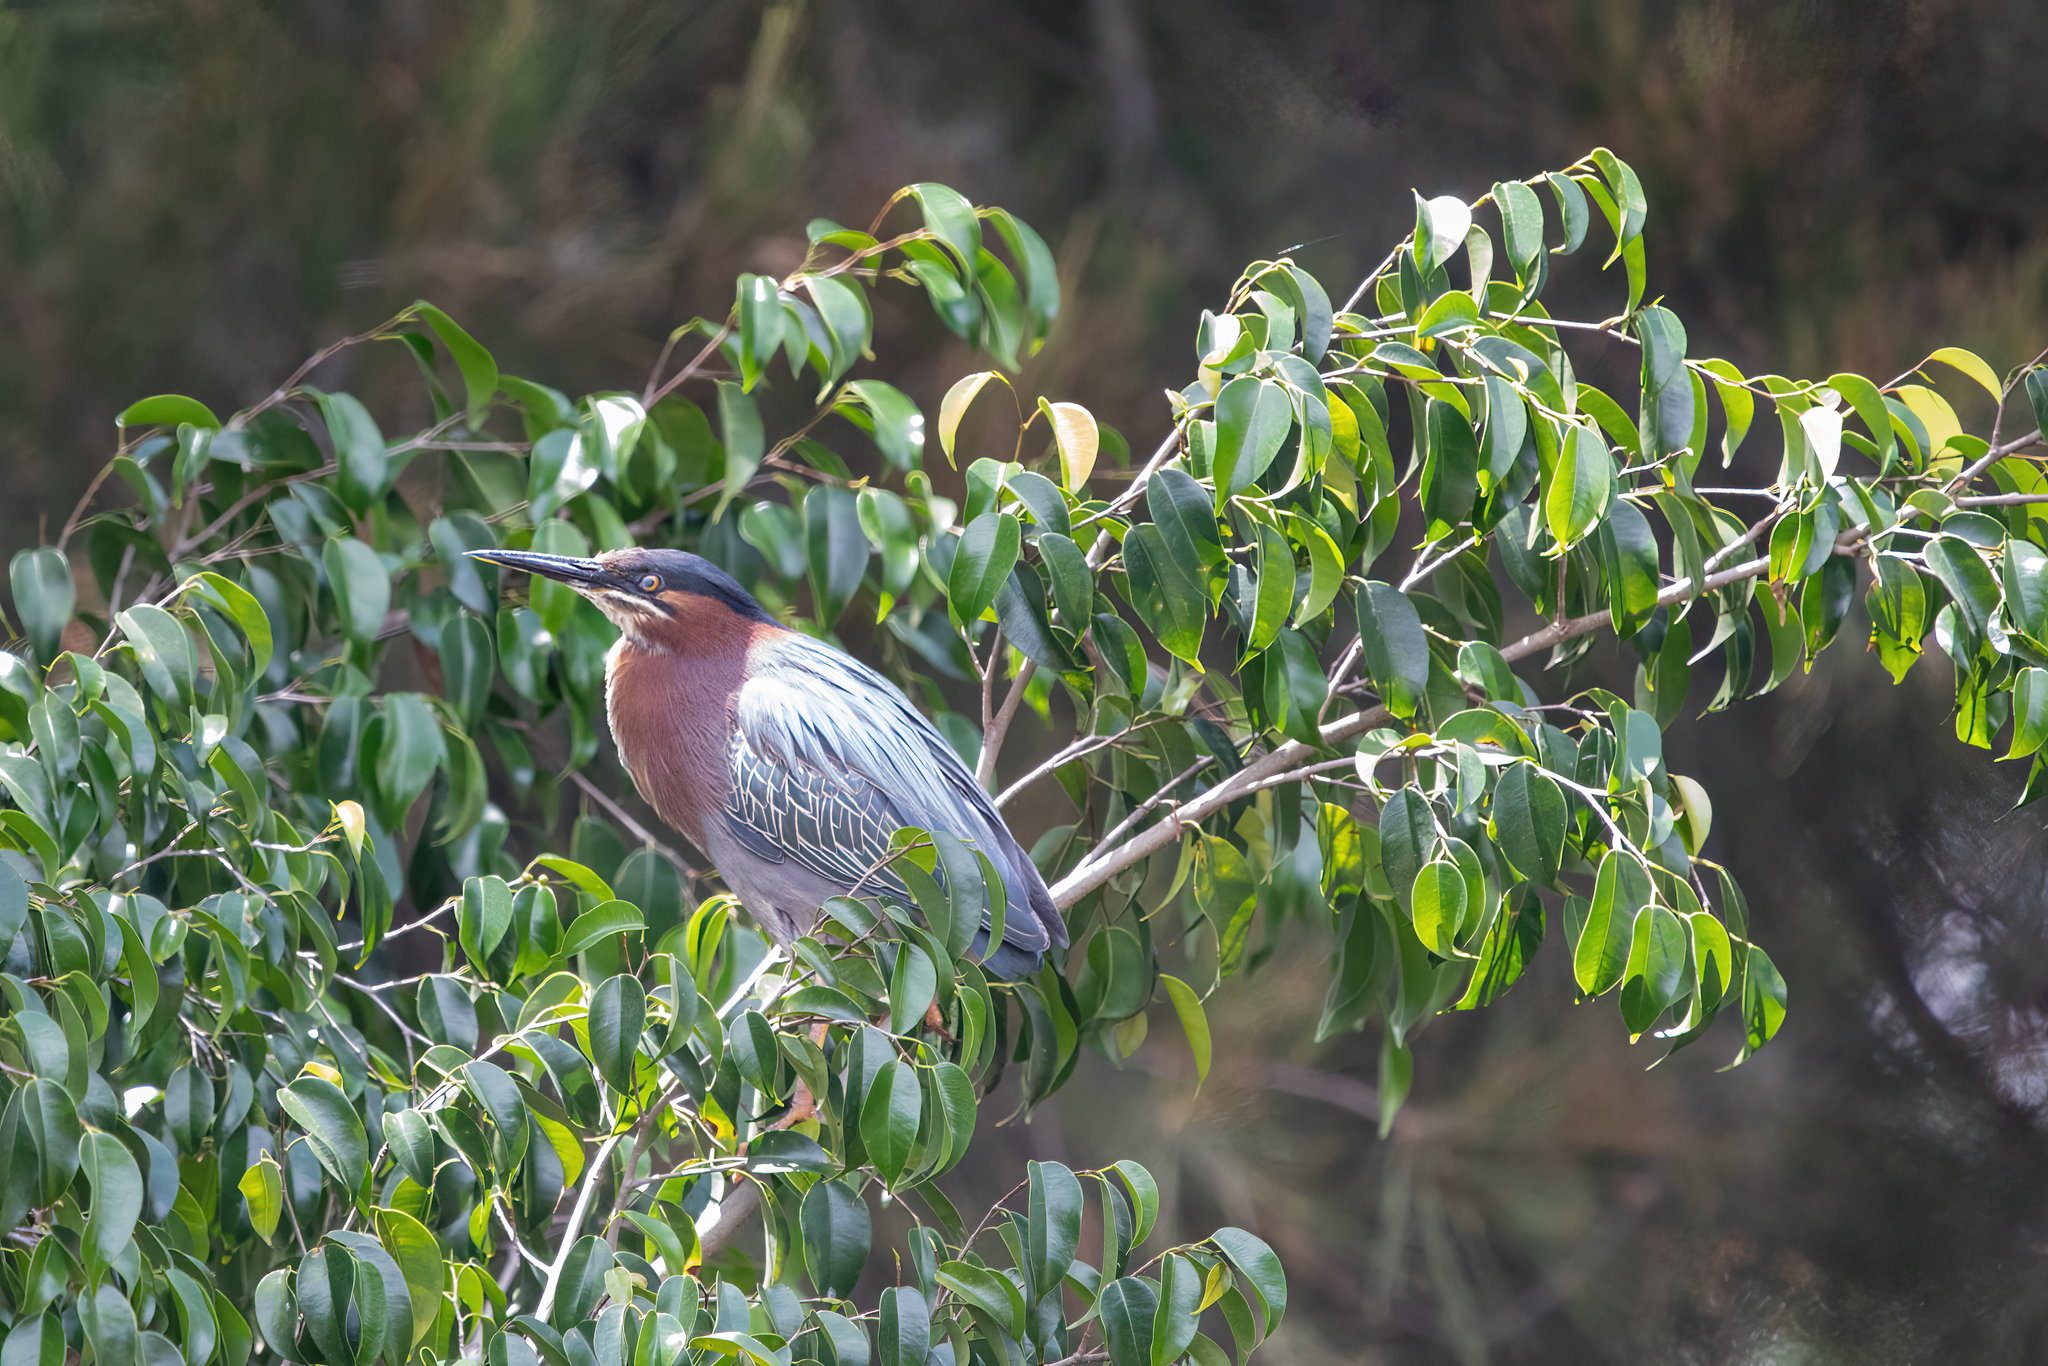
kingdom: Animalia
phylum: Chordata
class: Aves
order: Pelecaniformes
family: Ardeidae
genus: Butorides
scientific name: Butorides virescens
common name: Green heron
